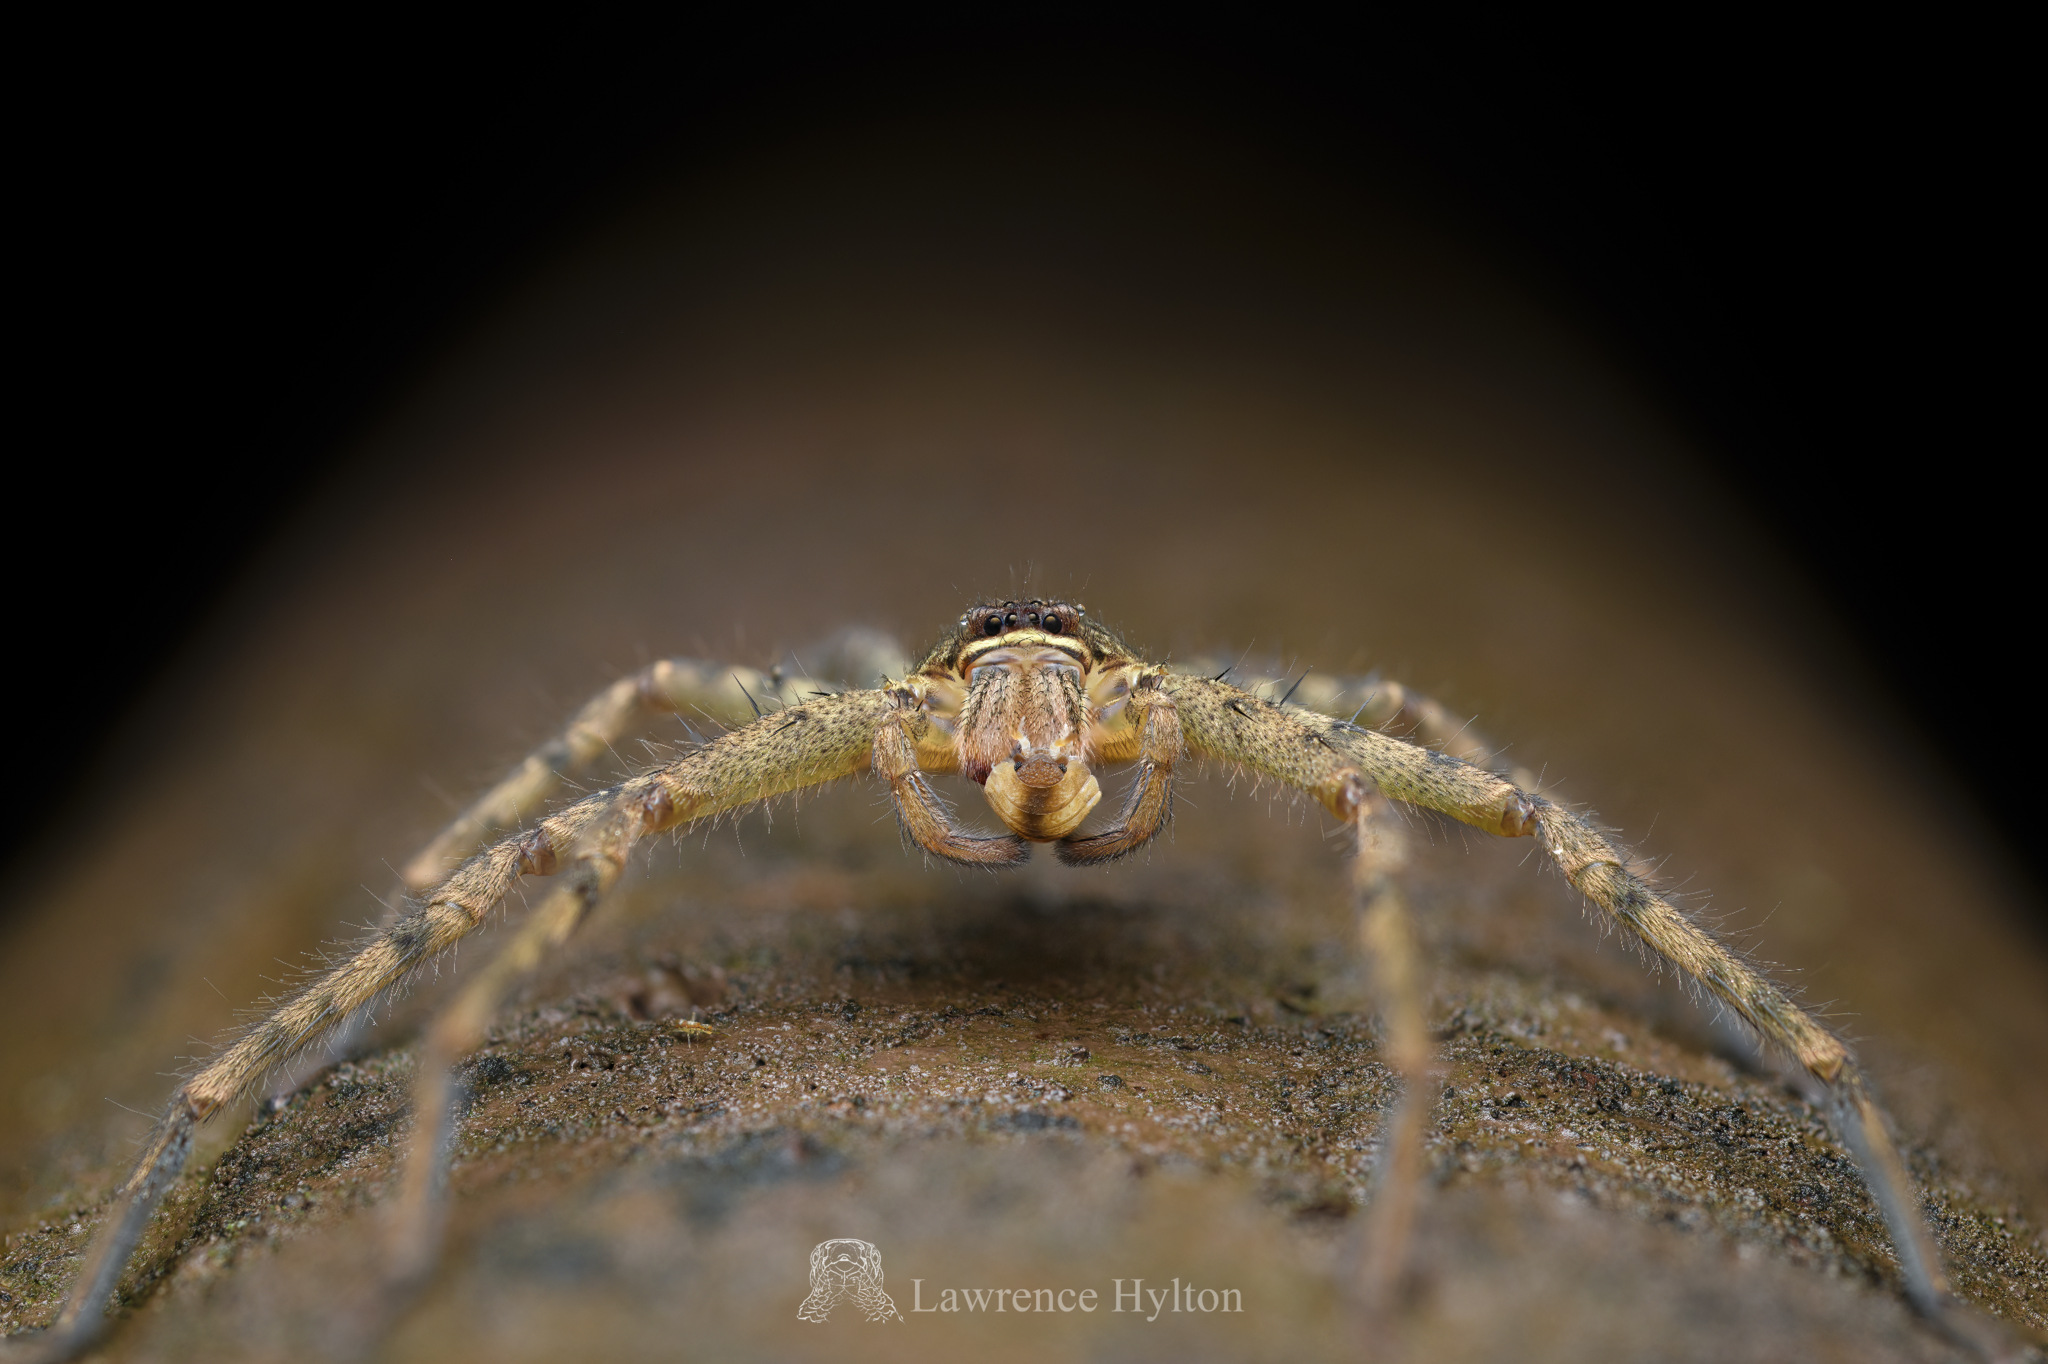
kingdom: Animalia
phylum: Arthropoda
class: Arachnida
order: Araneae
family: Sparassidae
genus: Heteropoda
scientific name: Heteropoda venatoria
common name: Huntsman spider
